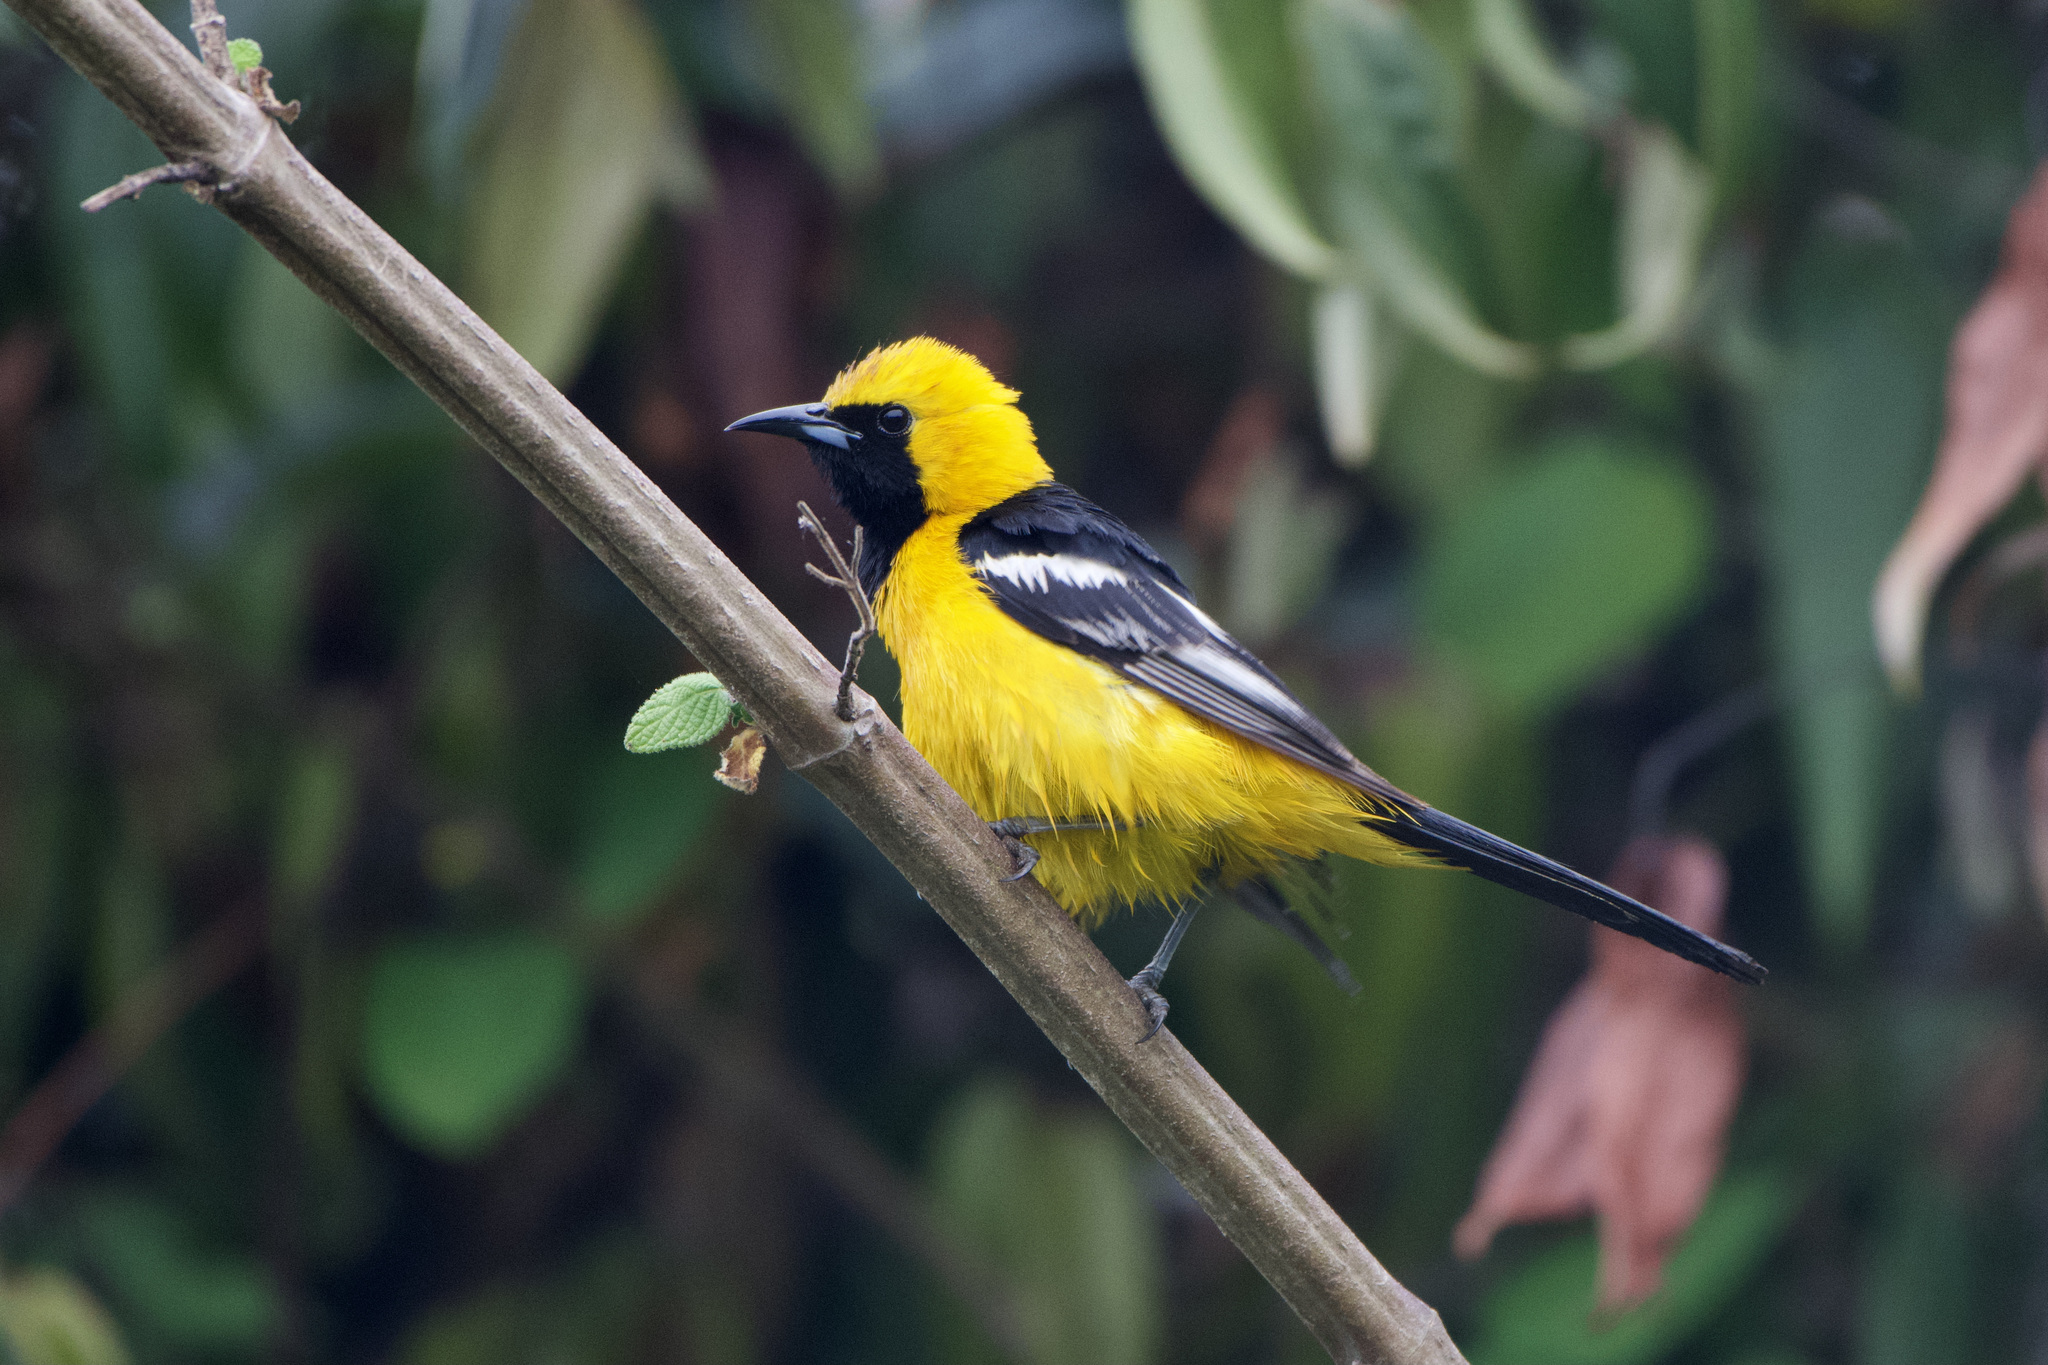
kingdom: Animalia
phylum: Chordata
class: Aves
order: Passeriformes
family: Icteridae
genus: Icterus
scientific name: Icterus cucullatus
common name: Hooded oriole
